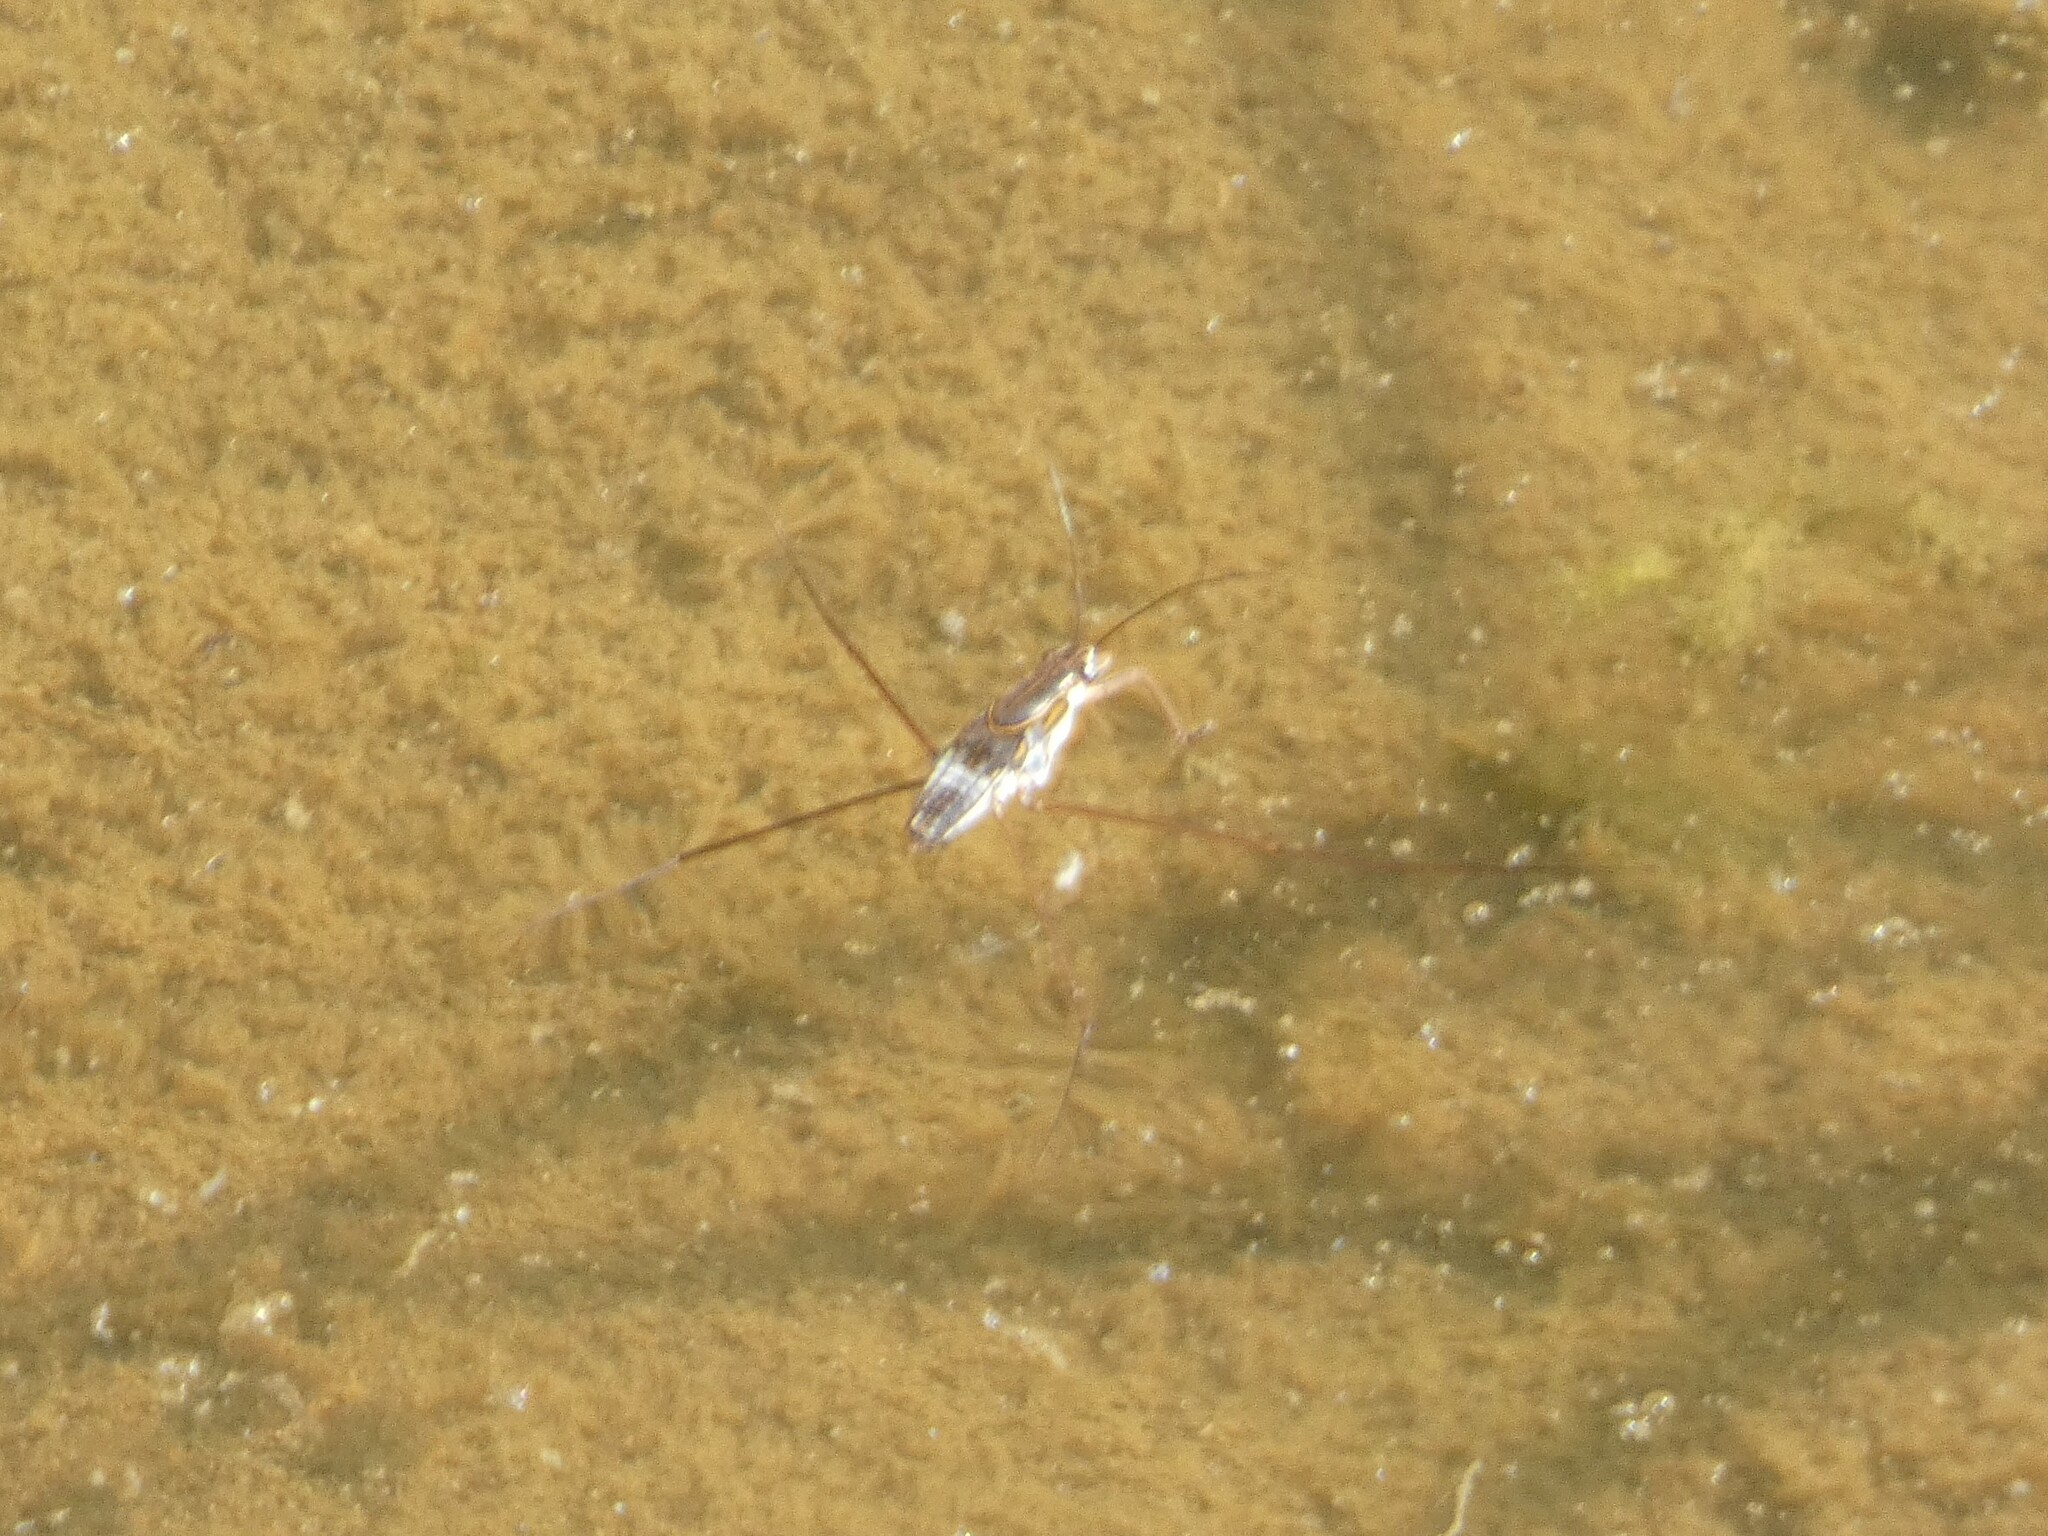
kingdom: Animalia
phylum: Arthropoda
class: Insecta
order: Hemiptera
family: Gerridae
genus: Limnogonus
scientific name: Limnogonus fossarum
